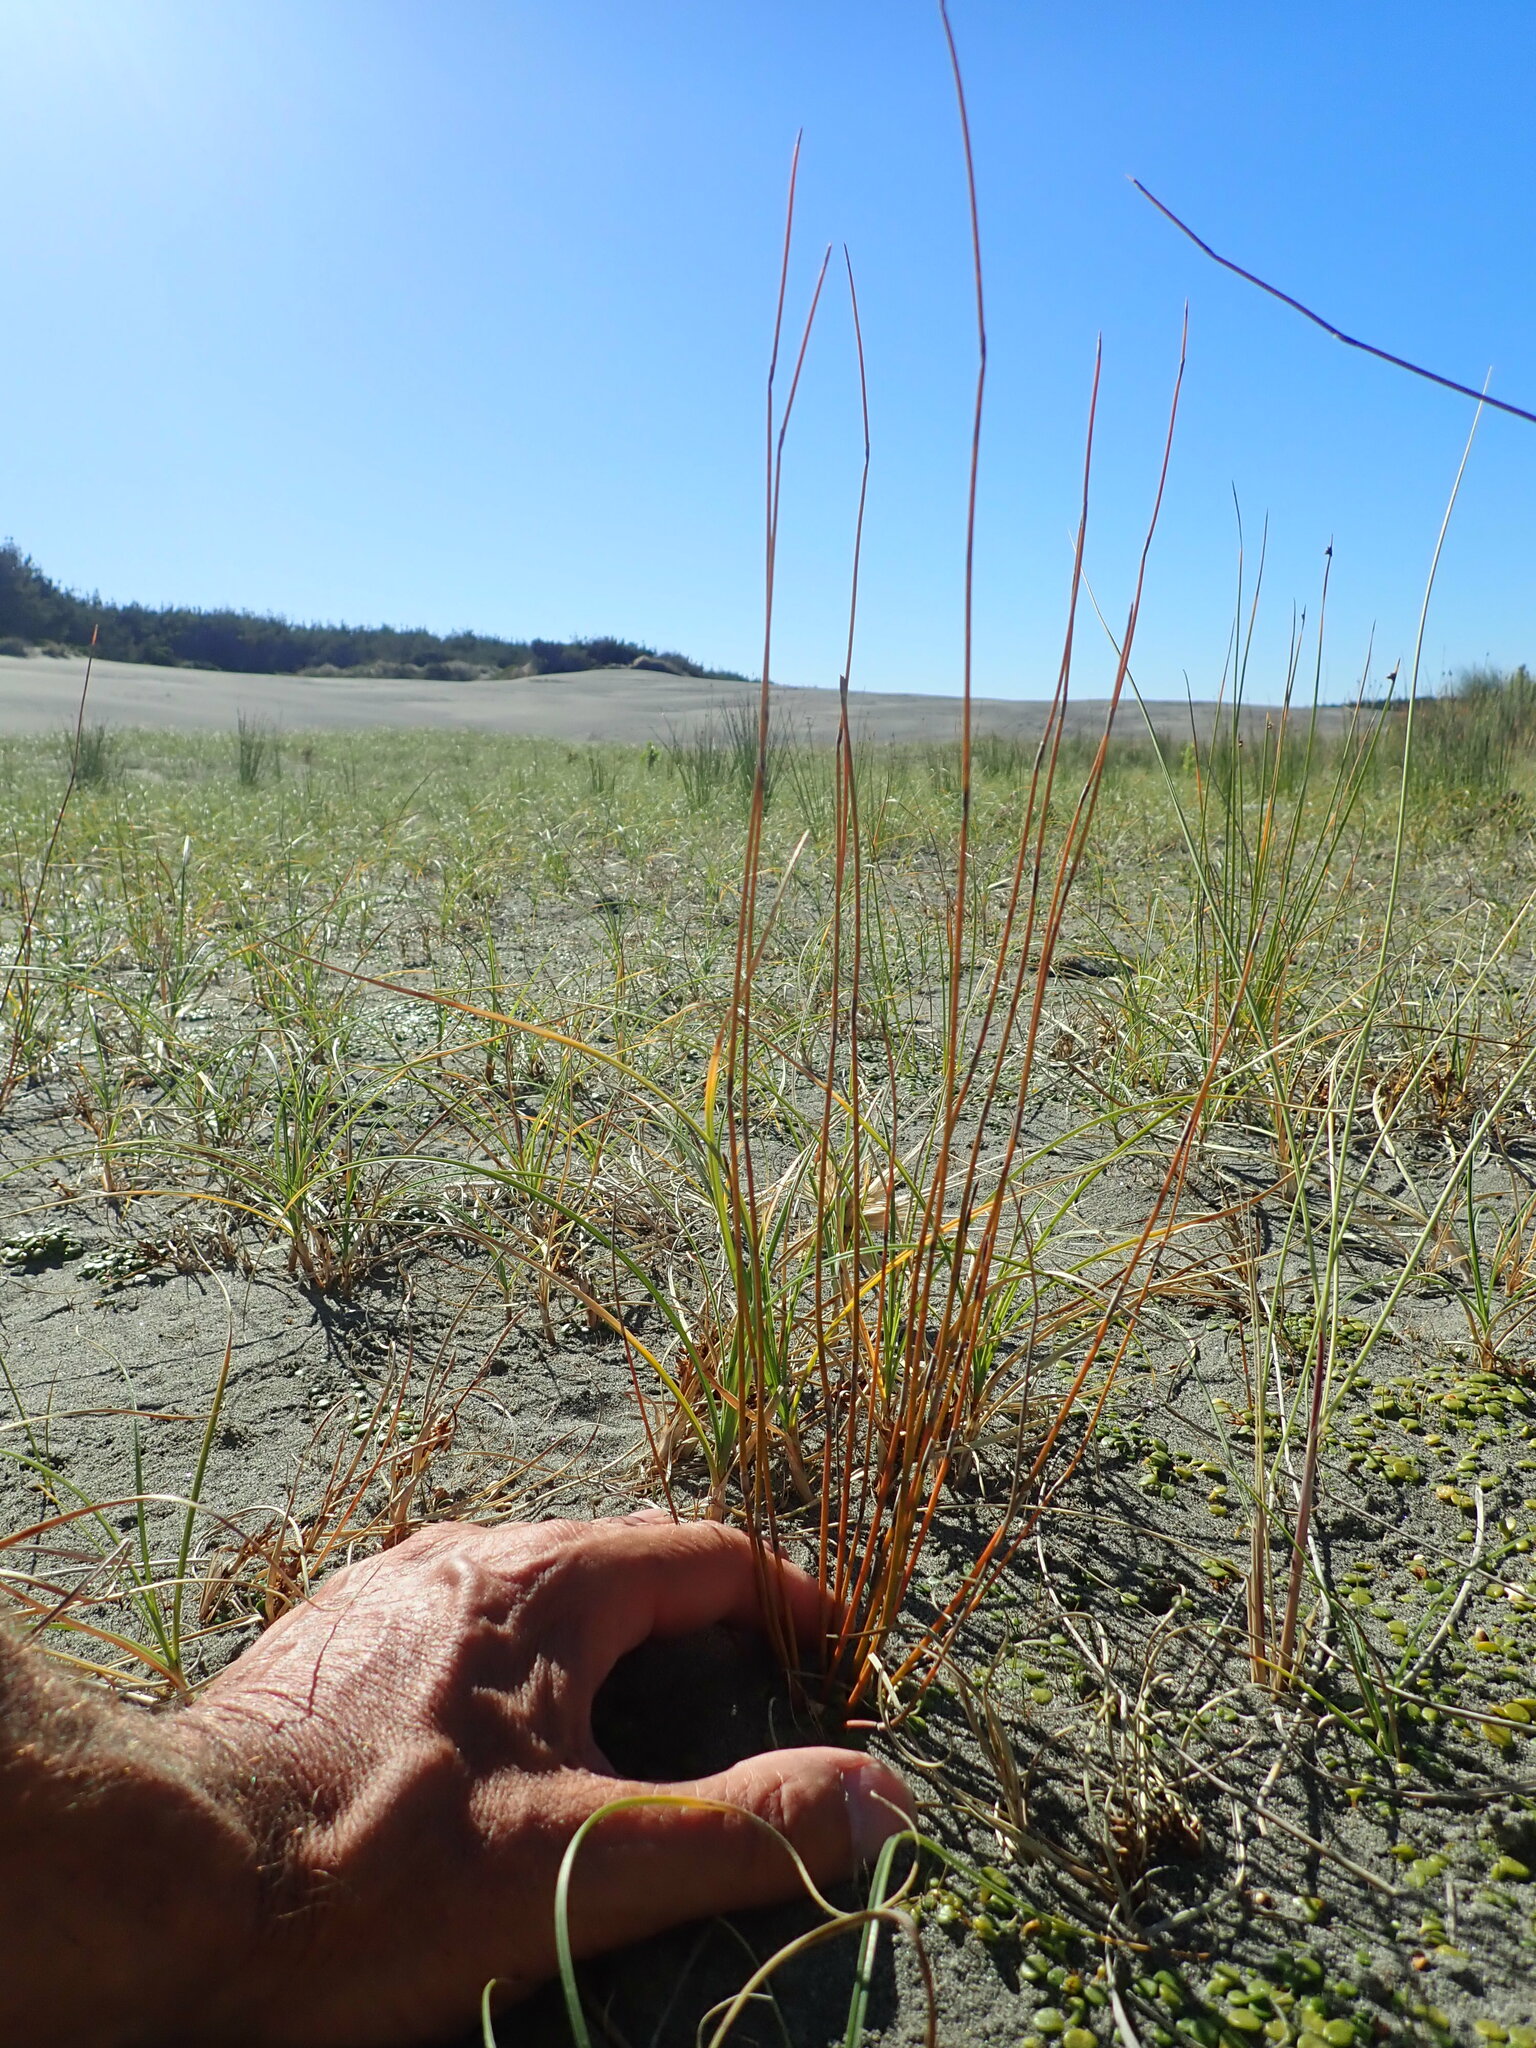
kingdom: Plantae
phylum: Tracheophyta
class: Magnoliopsida
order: Asterales
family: Campanulaceae
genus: Lobelia
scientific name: Lobelia anceps
